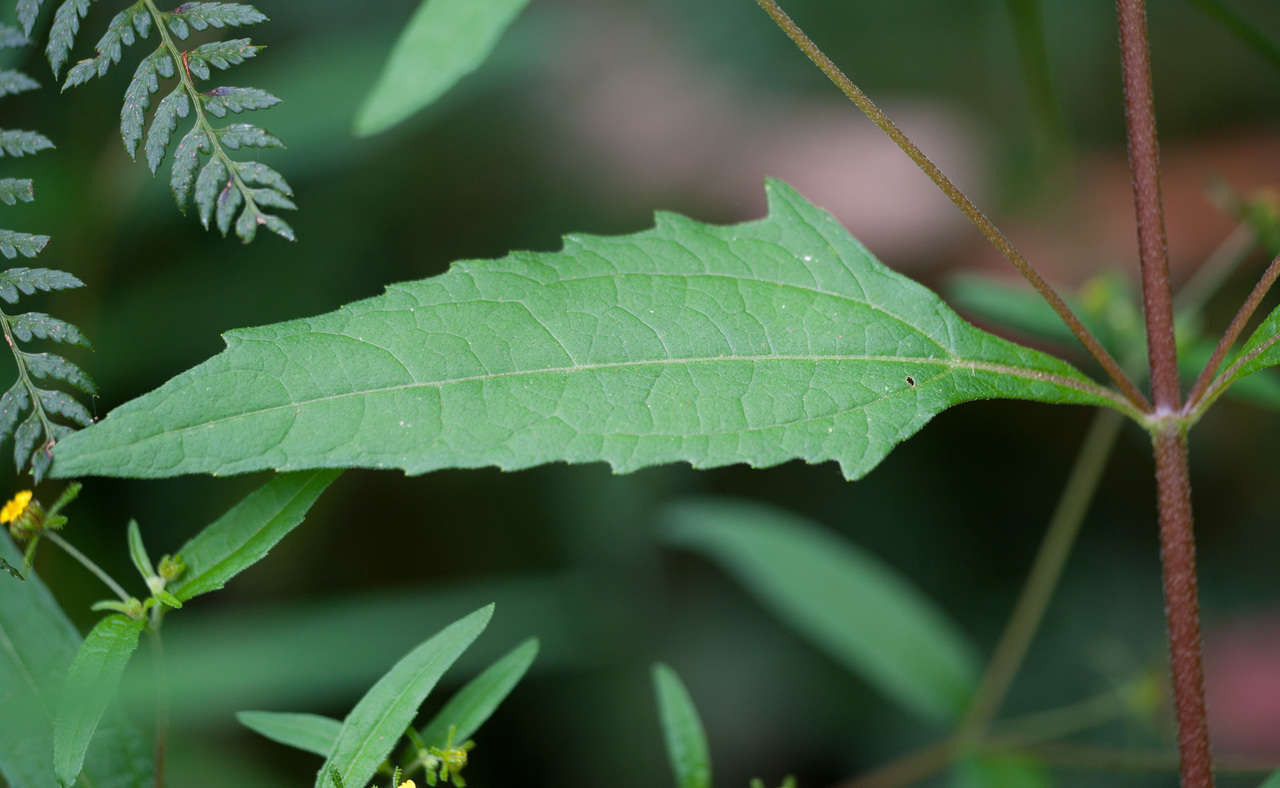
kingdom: Plantae
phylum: Tracheophyta
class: Magnoliopsida
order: Asterales
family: Asteraceae
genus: Sigesbeckia
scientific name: Sigesbeckia orientalis
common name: Eastern st paul's-wort
